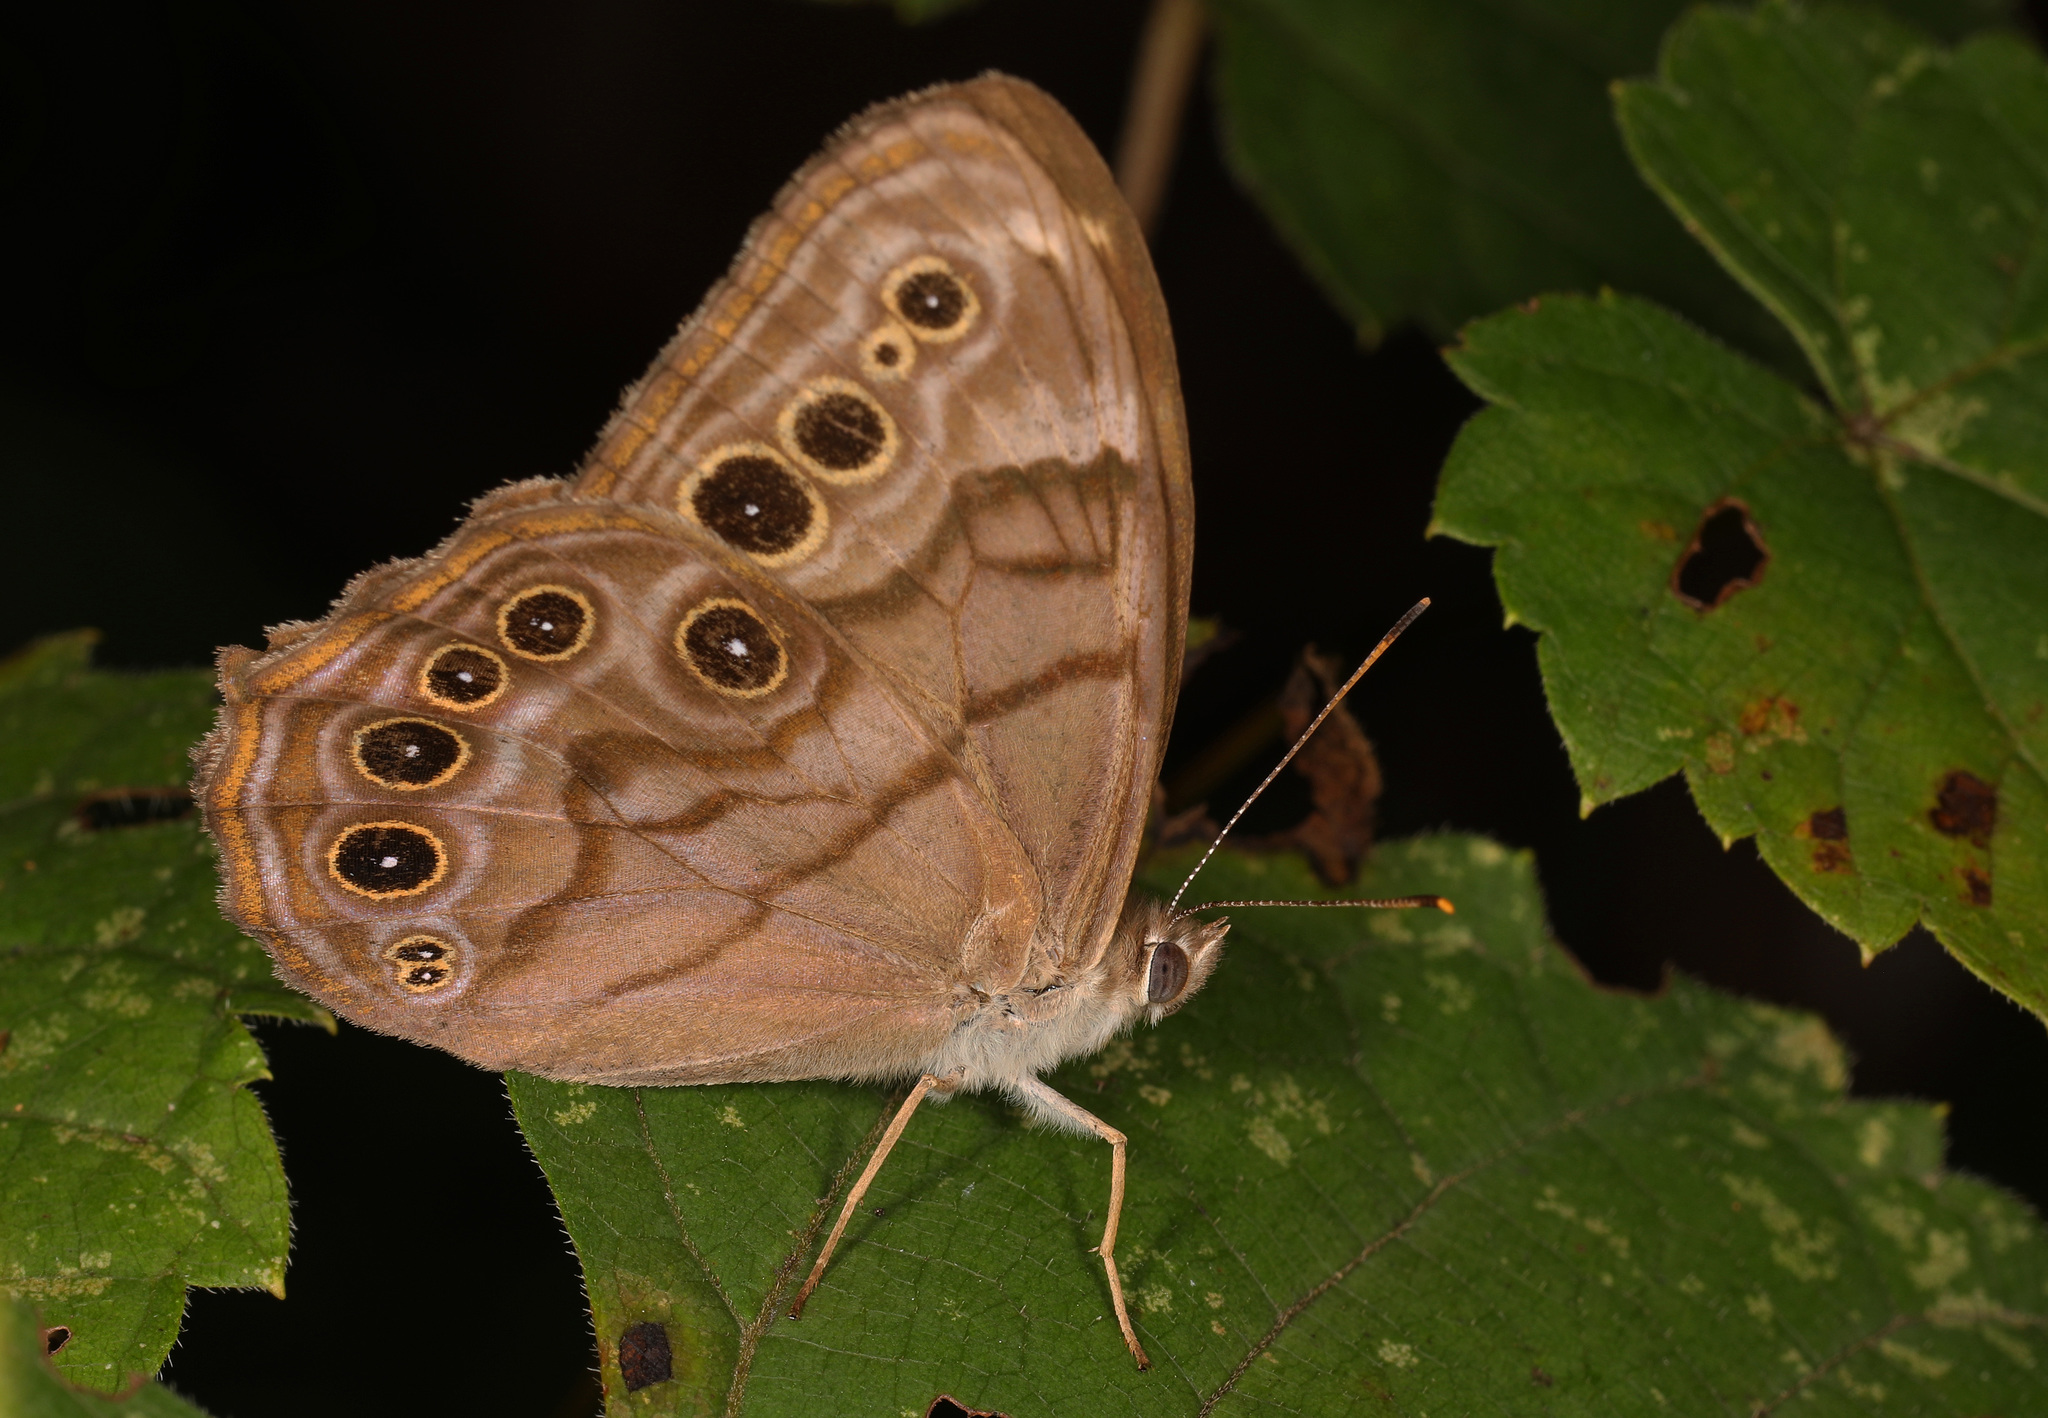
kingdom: Animalia
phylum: Arthropoda
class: Insecta
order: Lepidoptera
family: Nymphalidae
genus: Lethe
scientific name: Lethe anthedon
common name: Northern pearly-eye
